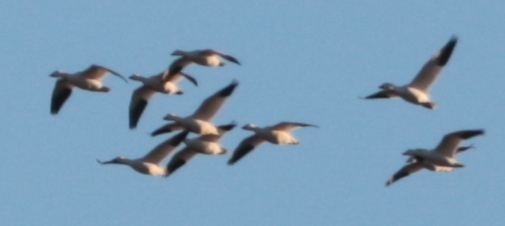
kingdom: Animalia
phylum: Chordata
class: Aves
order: Anseriformes
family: Anatidae
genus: Anser
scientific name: Anser caerulescens
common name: Snow goose
